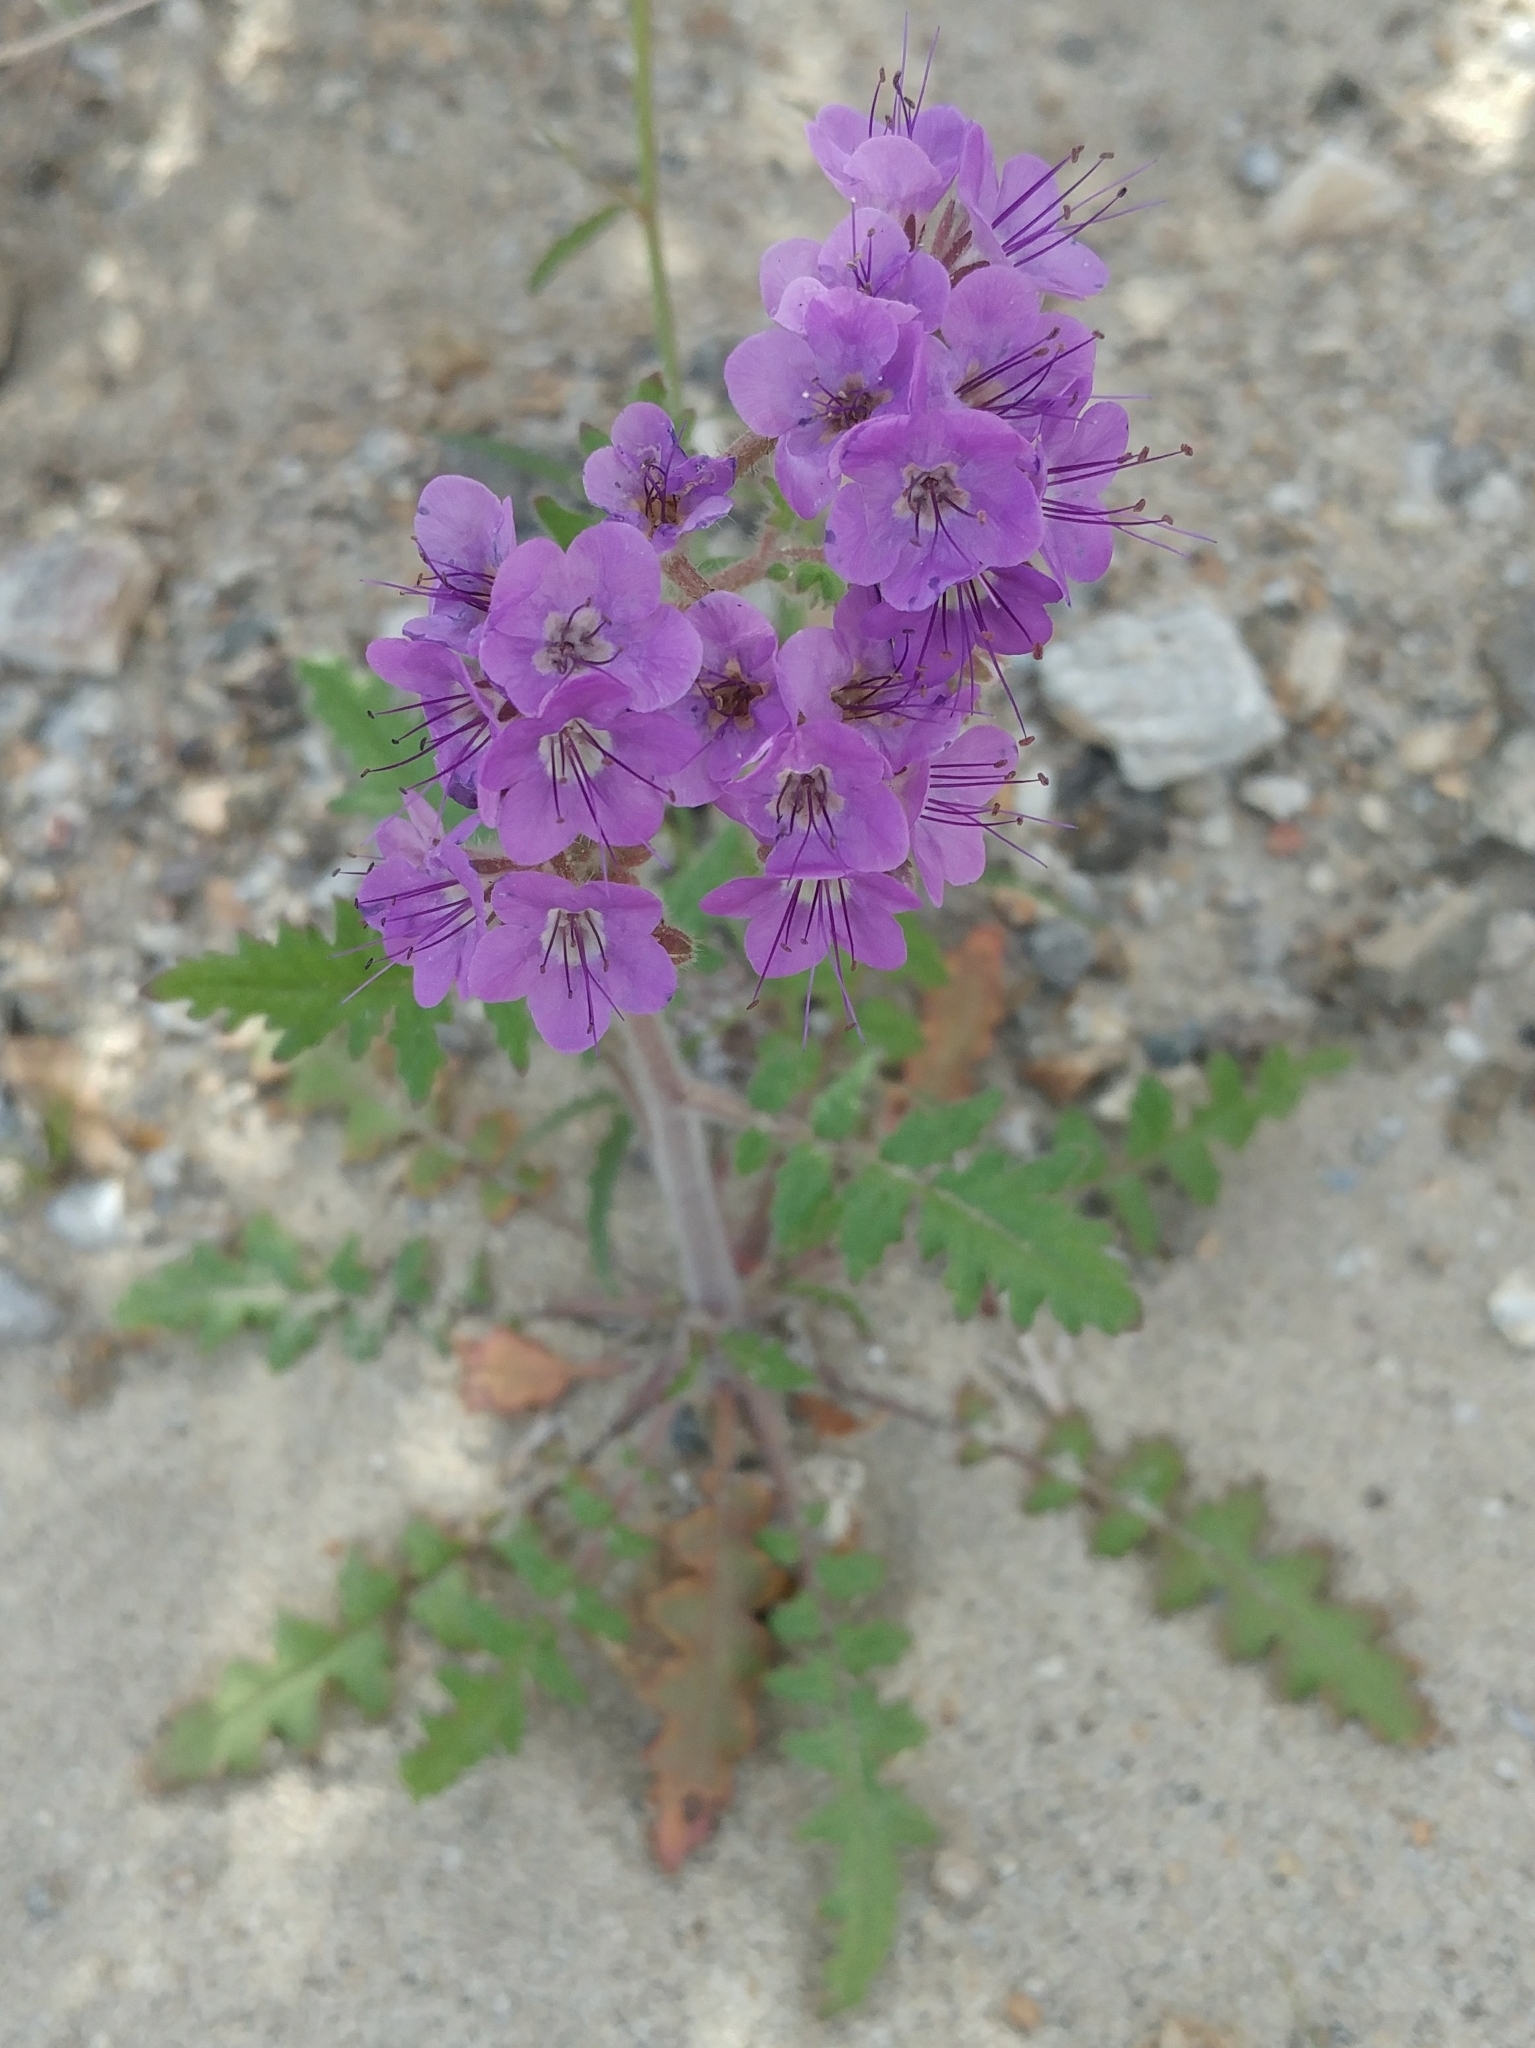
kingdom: Plantae
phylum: Tracheophyta
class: Magnoliopsida
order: Boraginales
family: Hydrophyllaceae
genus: Phacelia
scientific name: Phacelia crenulata
